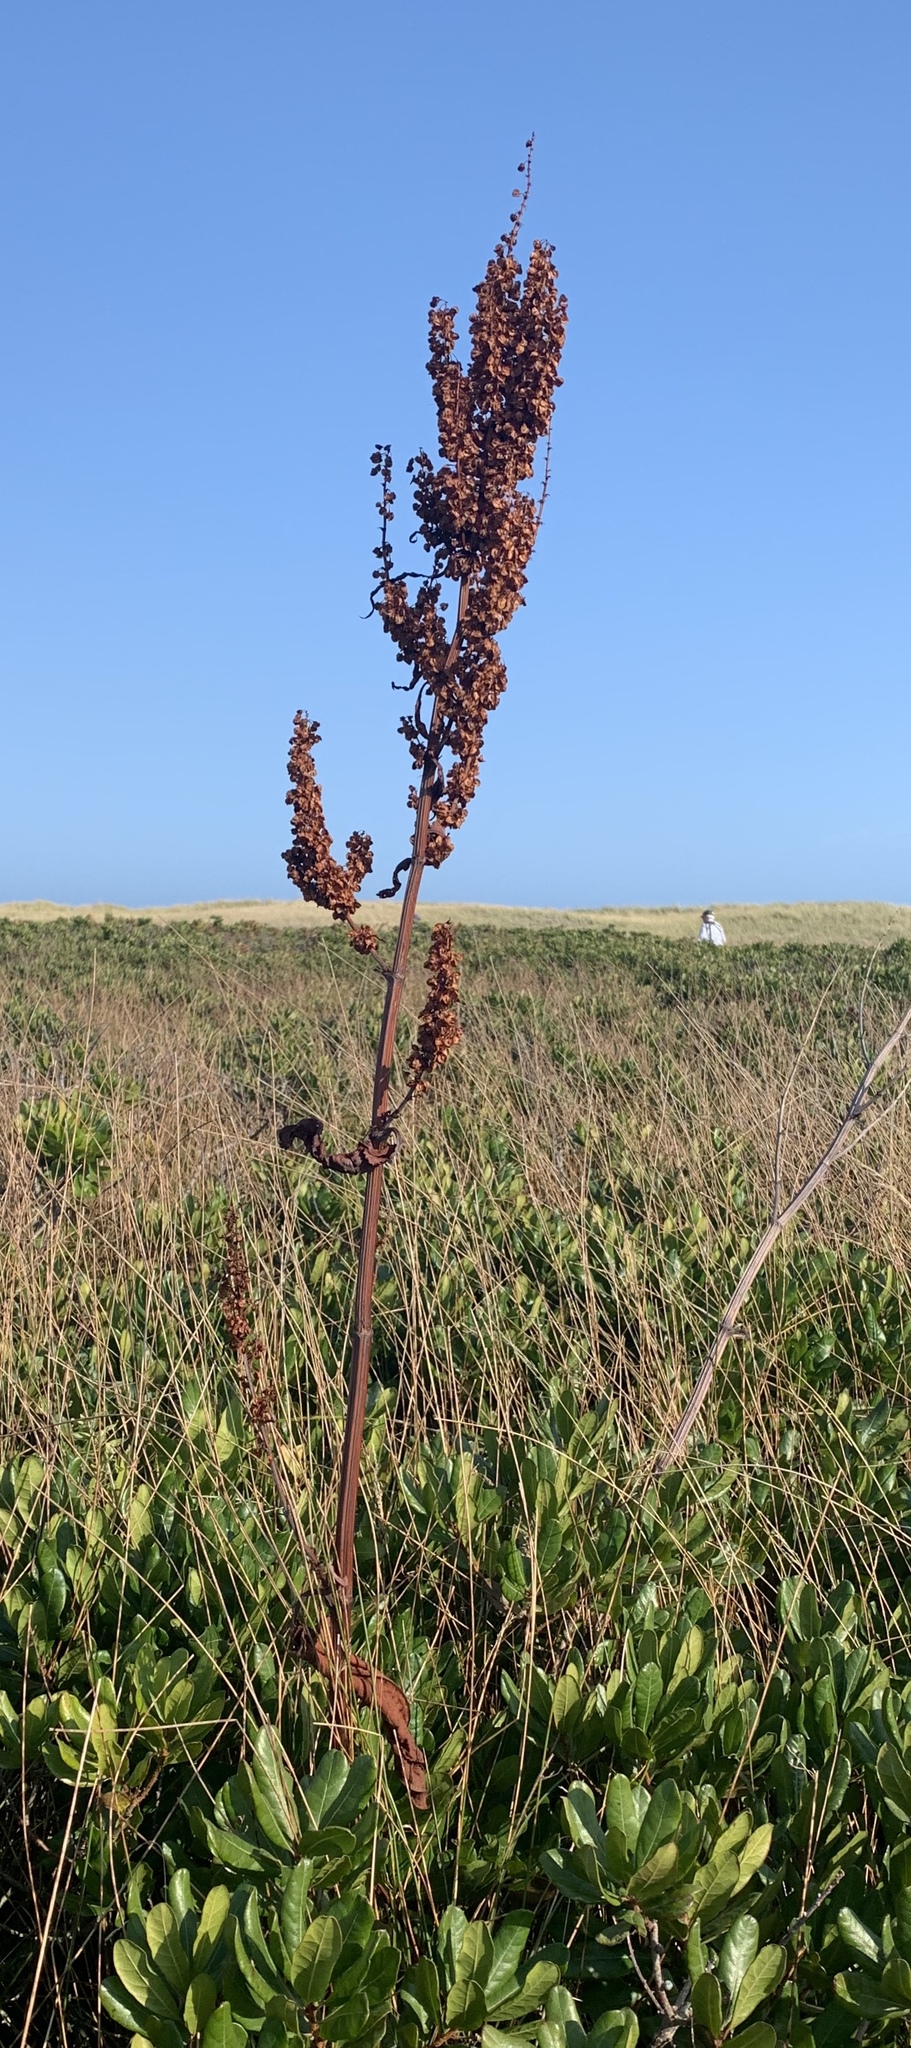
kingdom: Plantae
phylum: Tracheophyta
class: Magnoliopsida
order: Caryophyllales
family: Polygonaceae
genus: Rumex
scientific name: Rumex britannica
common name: British dock
